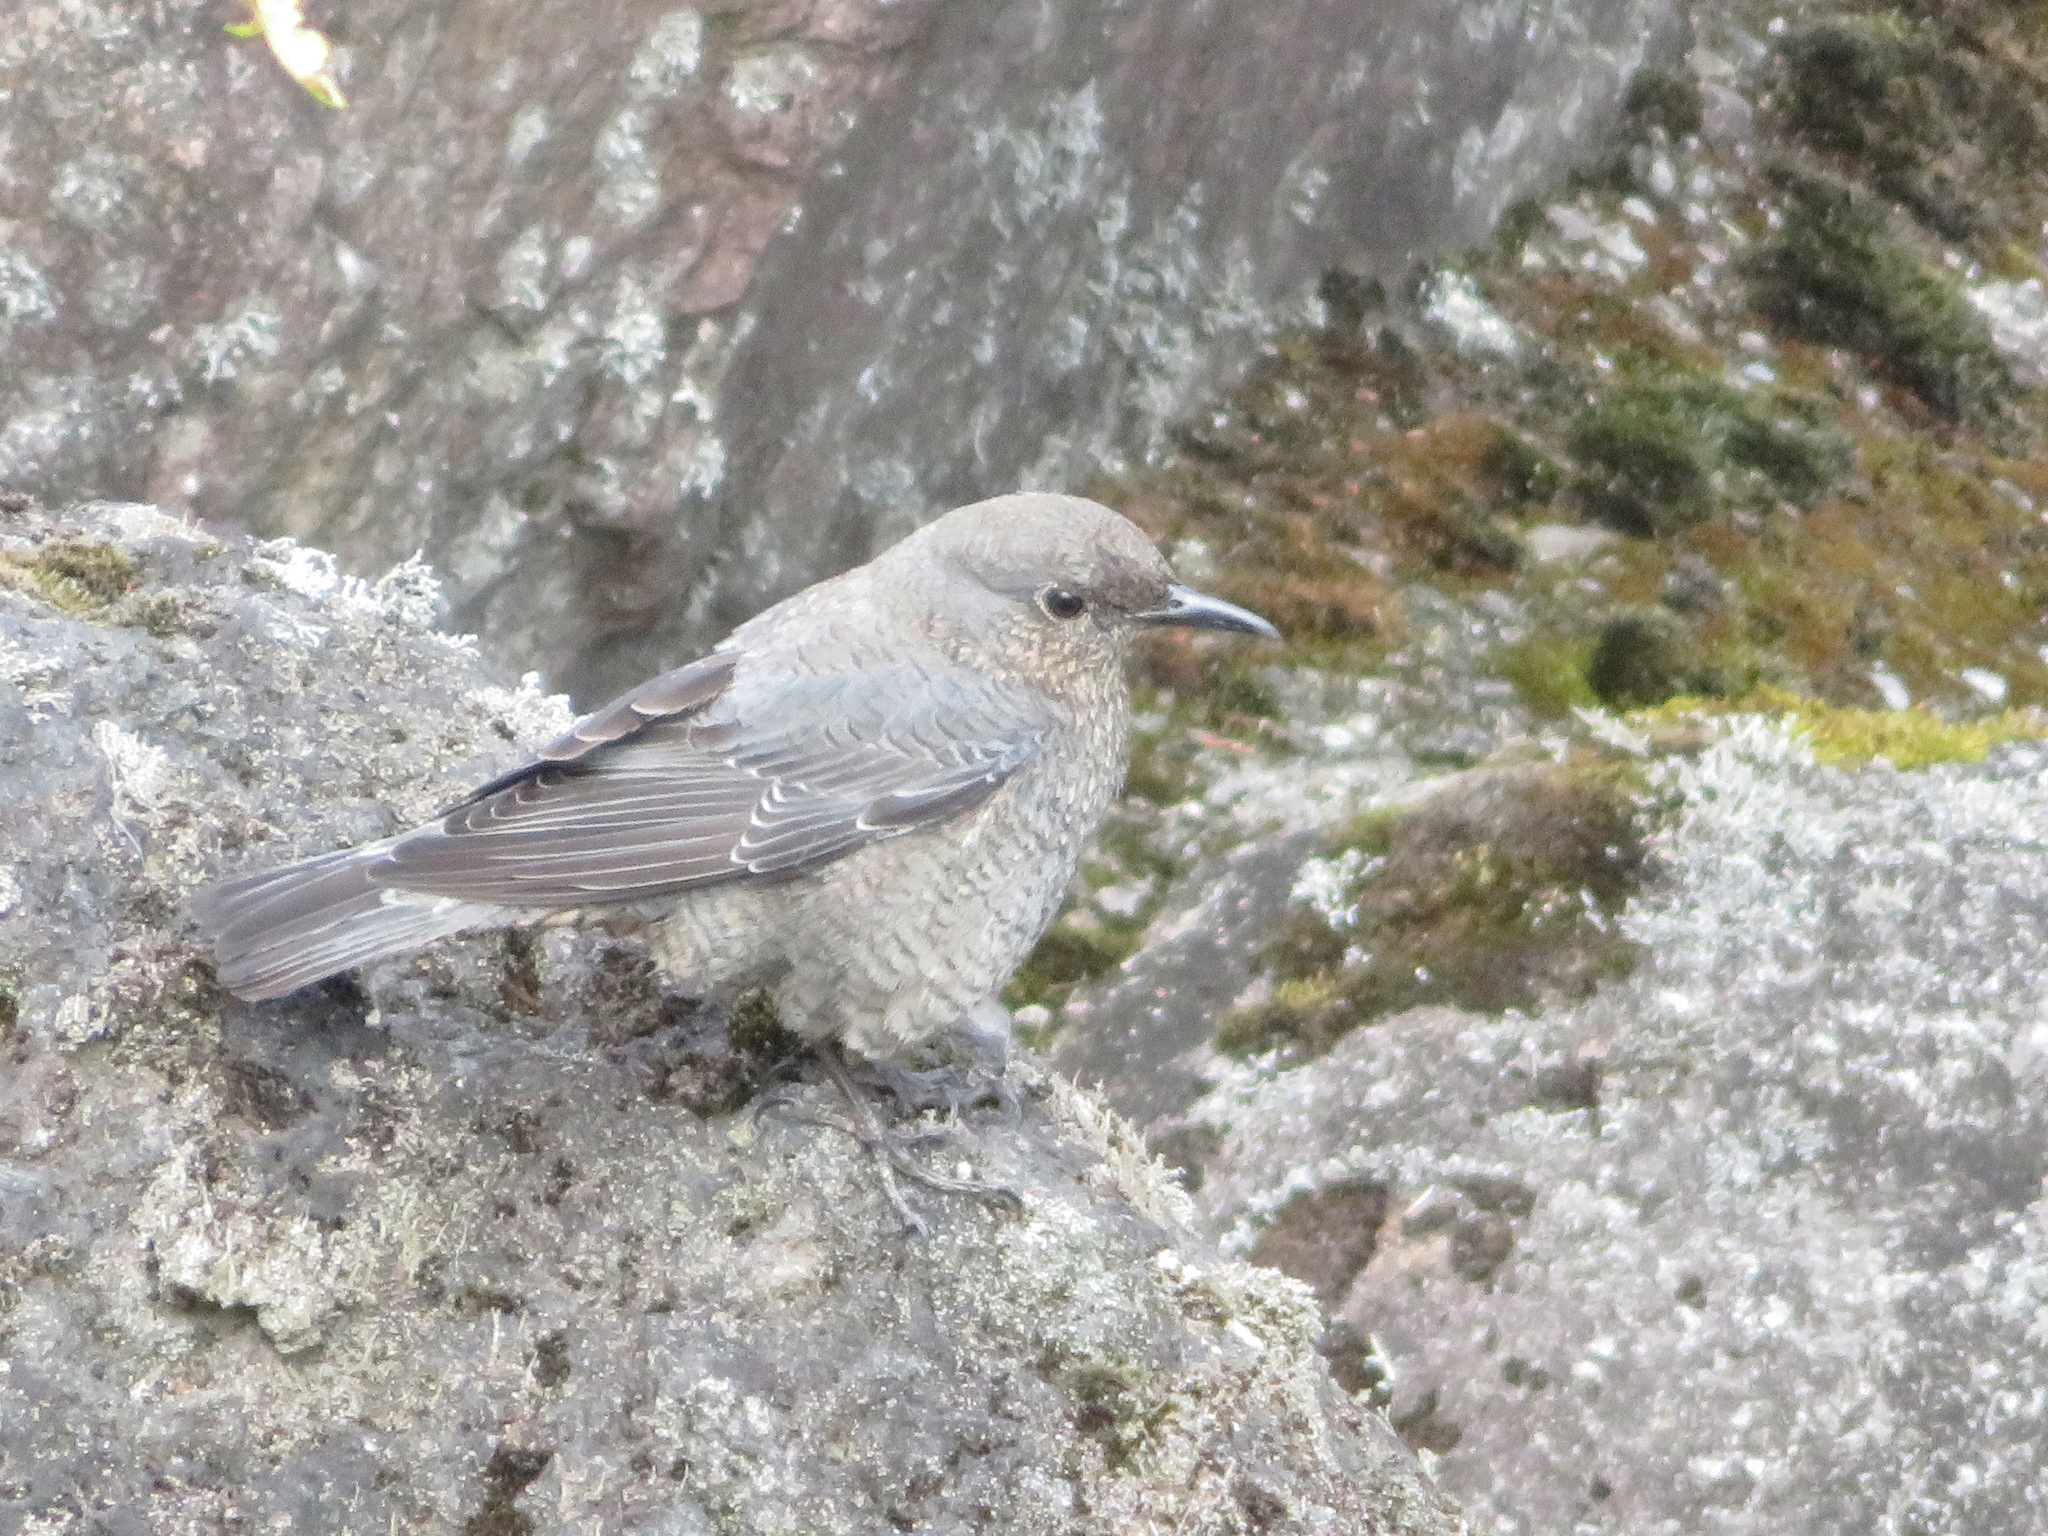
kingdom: Animalia
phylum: Chordata
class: Aves
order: Passeriformes
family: Muscicapidae
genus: Monticola
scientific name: Monticola solitarius
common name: Blue rock thrush
